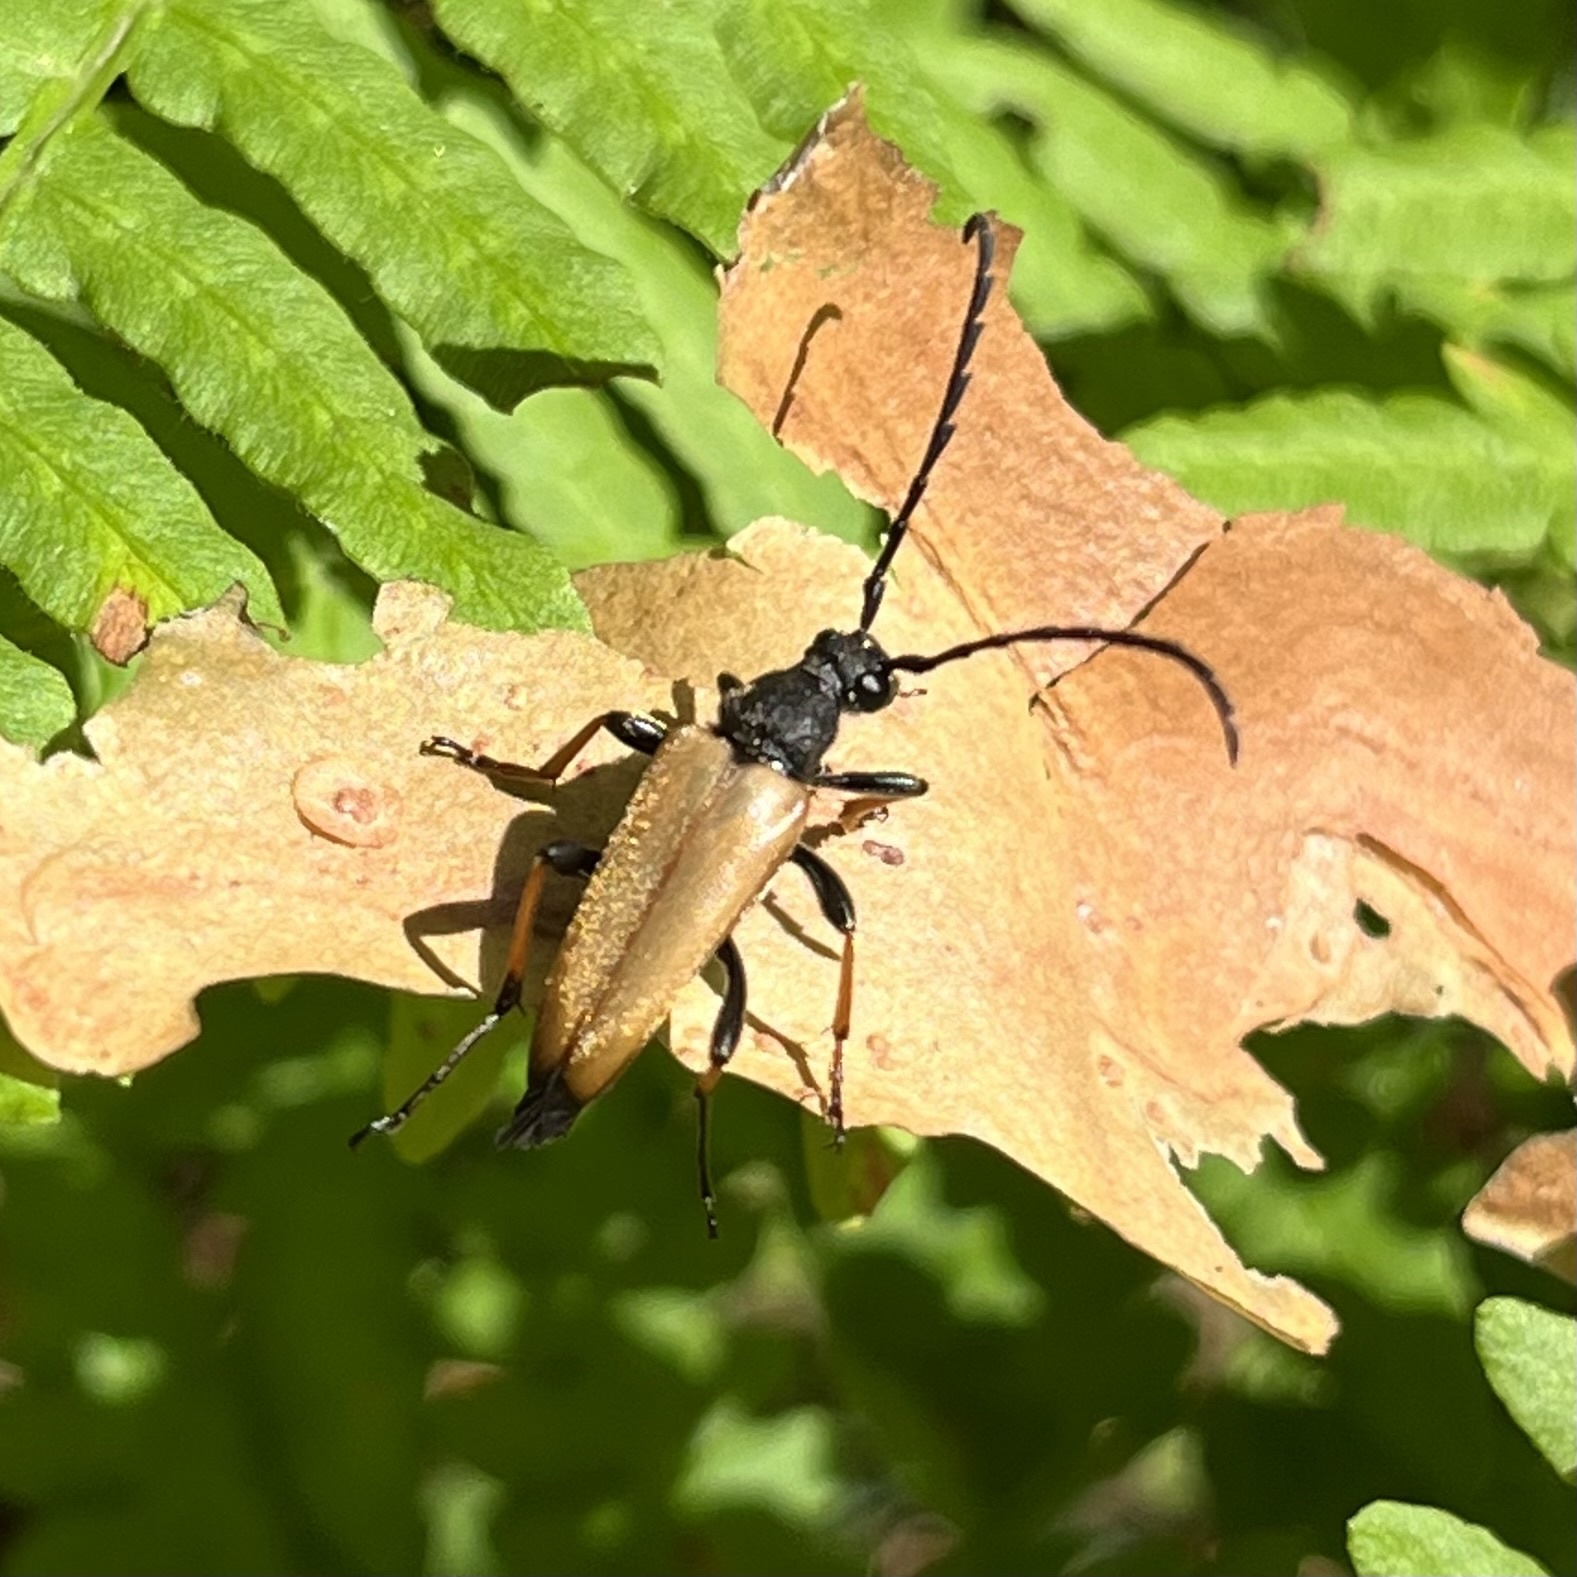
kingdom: Animalia
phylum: Arthropoda
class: Insecta
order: Coleoptera
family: Cerambycidae
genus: Stictoleptura
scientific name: Stictoleptura rubra
